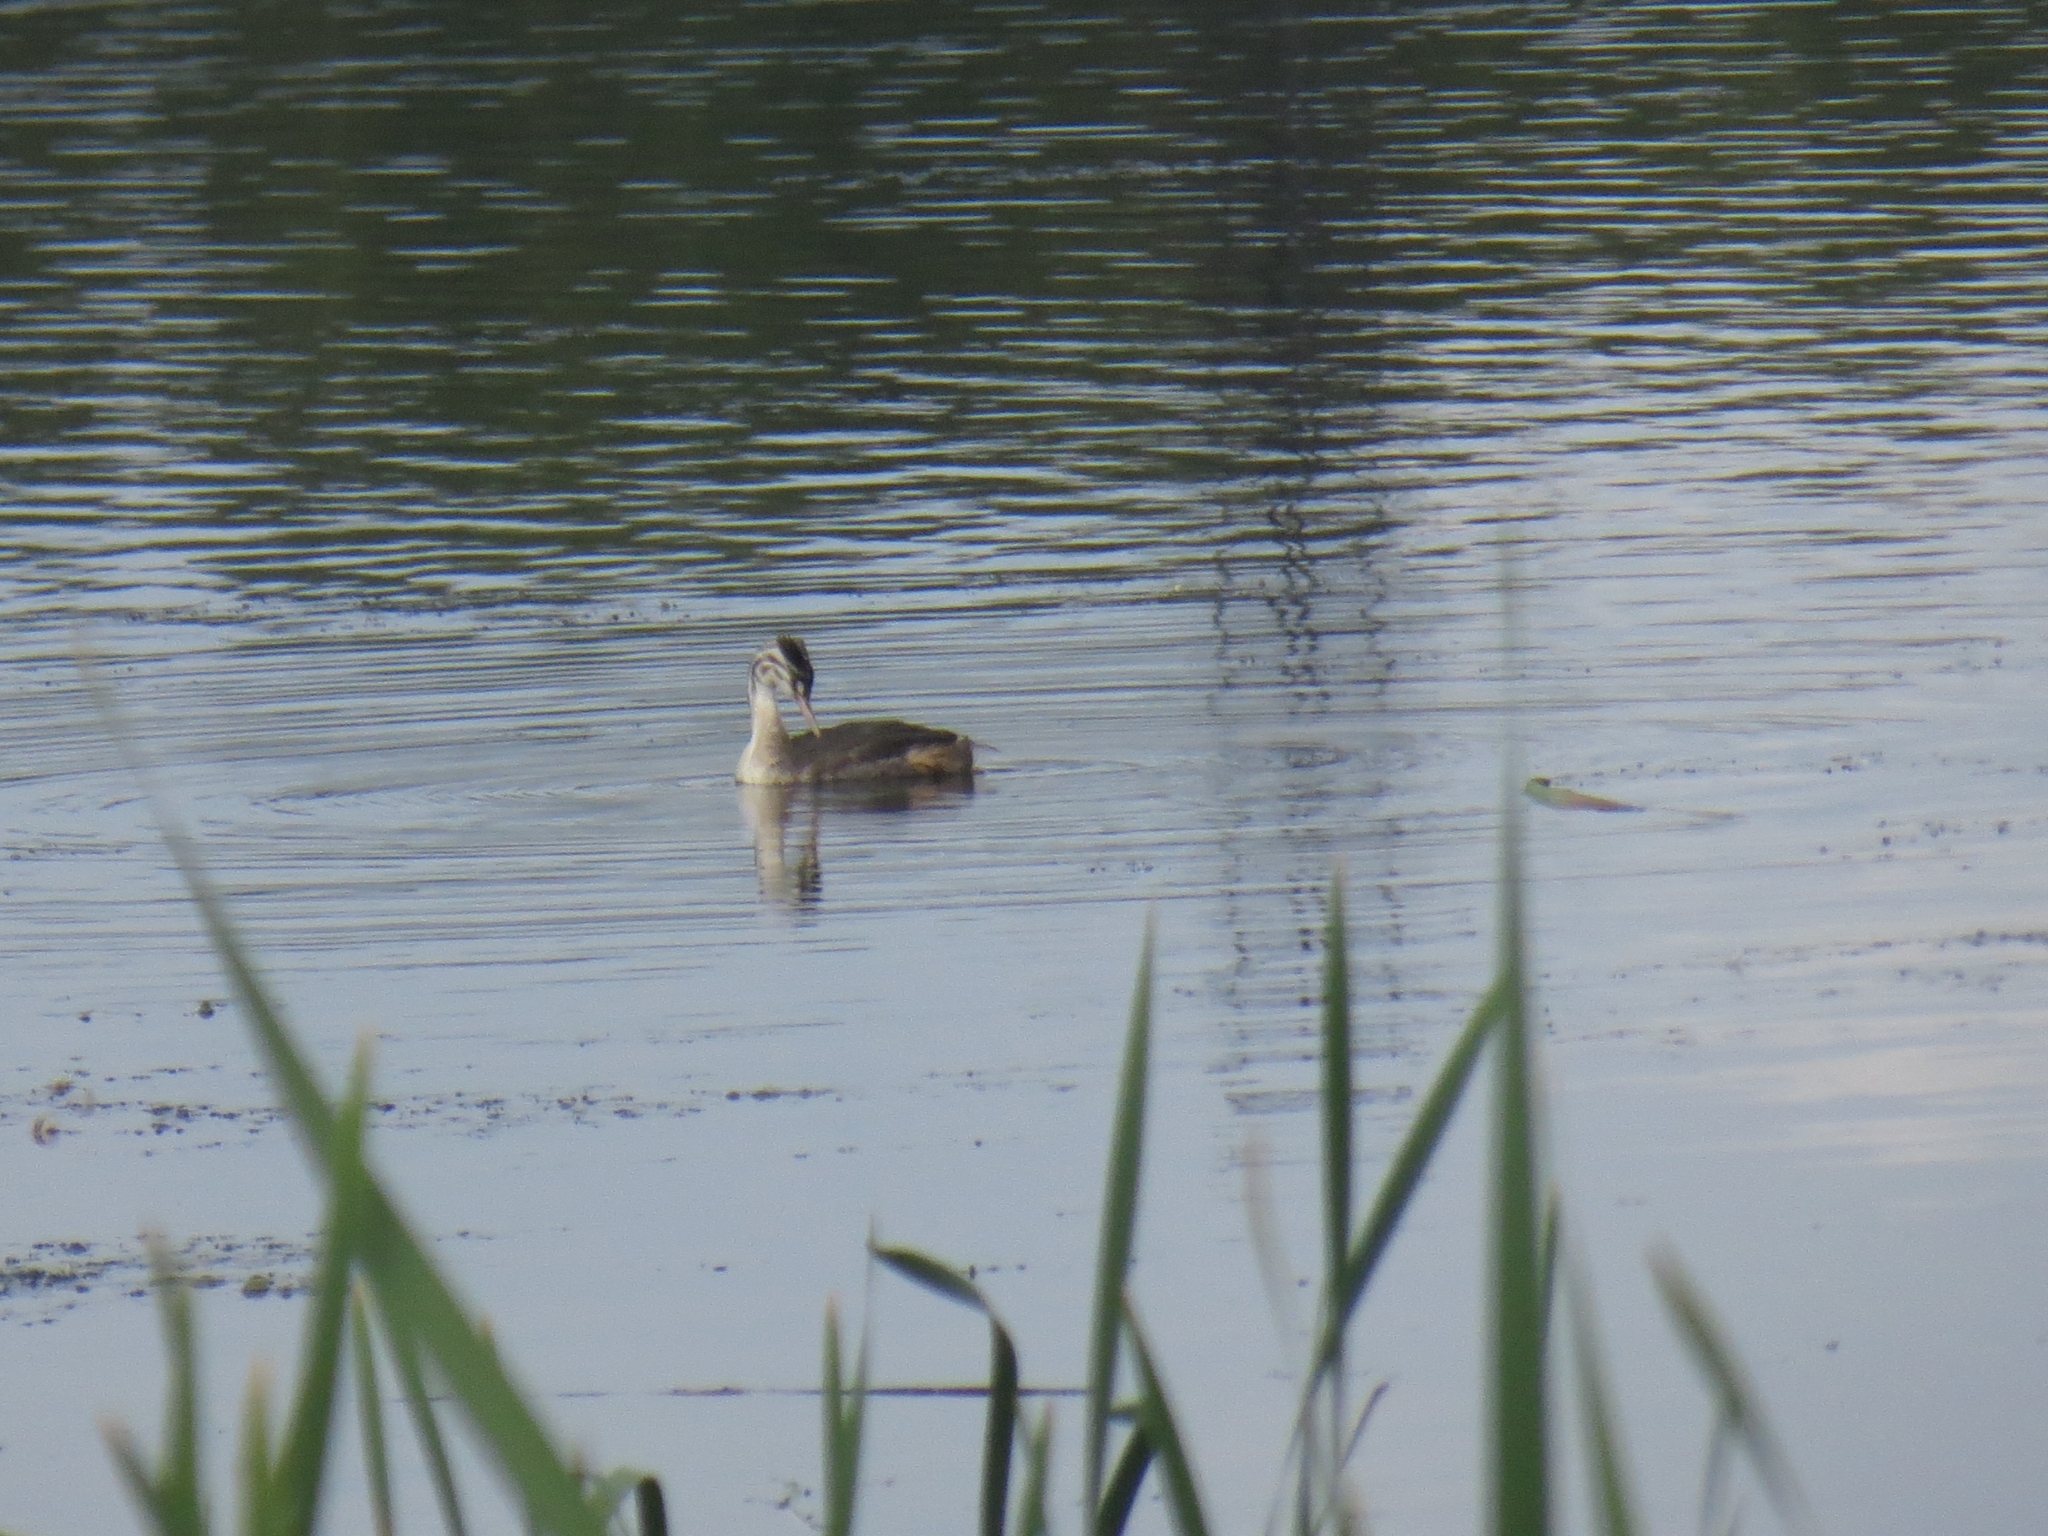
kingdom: Animalia
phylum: Chordata
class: Aves
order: Podicipediformes
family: Podicipedidae
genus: Podiceps
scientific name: Podiceps cristatus
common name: Great crested grebe
